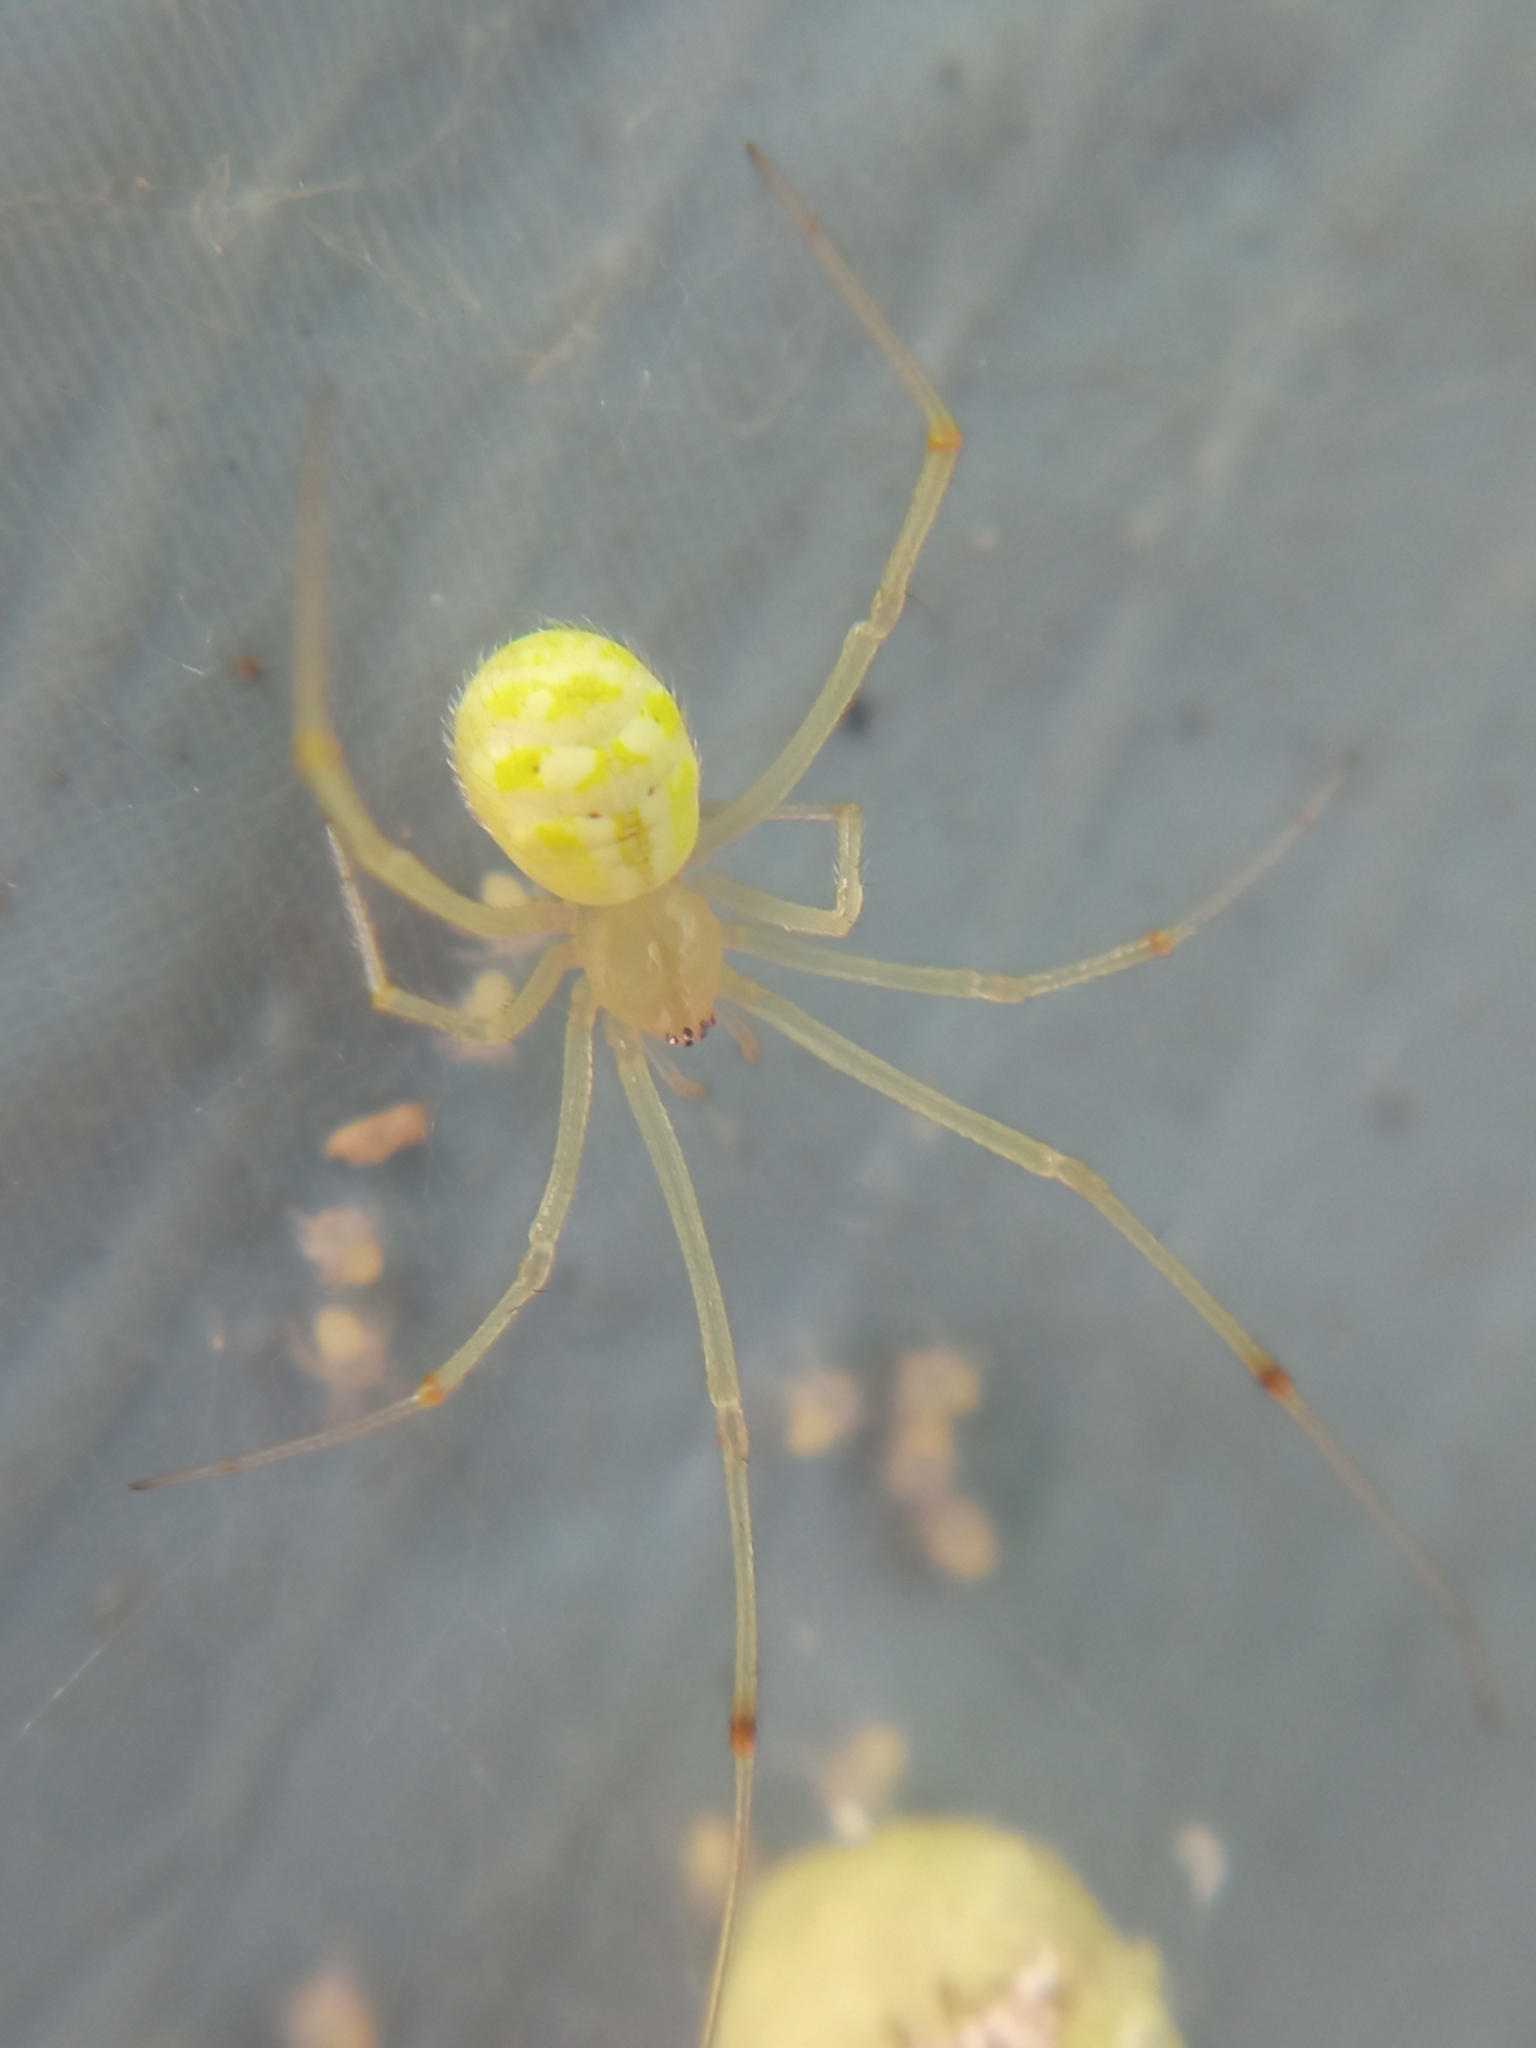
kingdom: Animalia
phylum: Arthropoda
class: Arachnida
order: Araneae
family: Theridiidae
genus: Heterotheridion
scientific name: Heterotheridion nigrovariegatum
